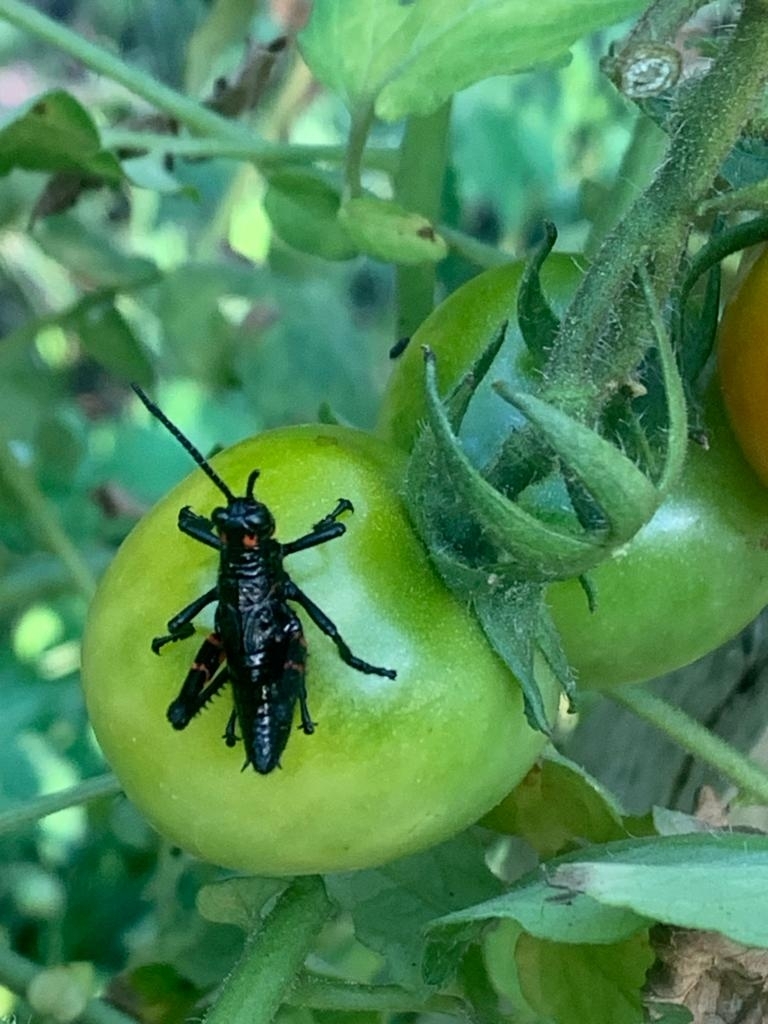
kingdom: Animalia
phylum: Arthropoda
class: Insecta
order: Orthoptera
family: Romaleidae
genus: Chromacris
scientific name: Chromacris speciosa
